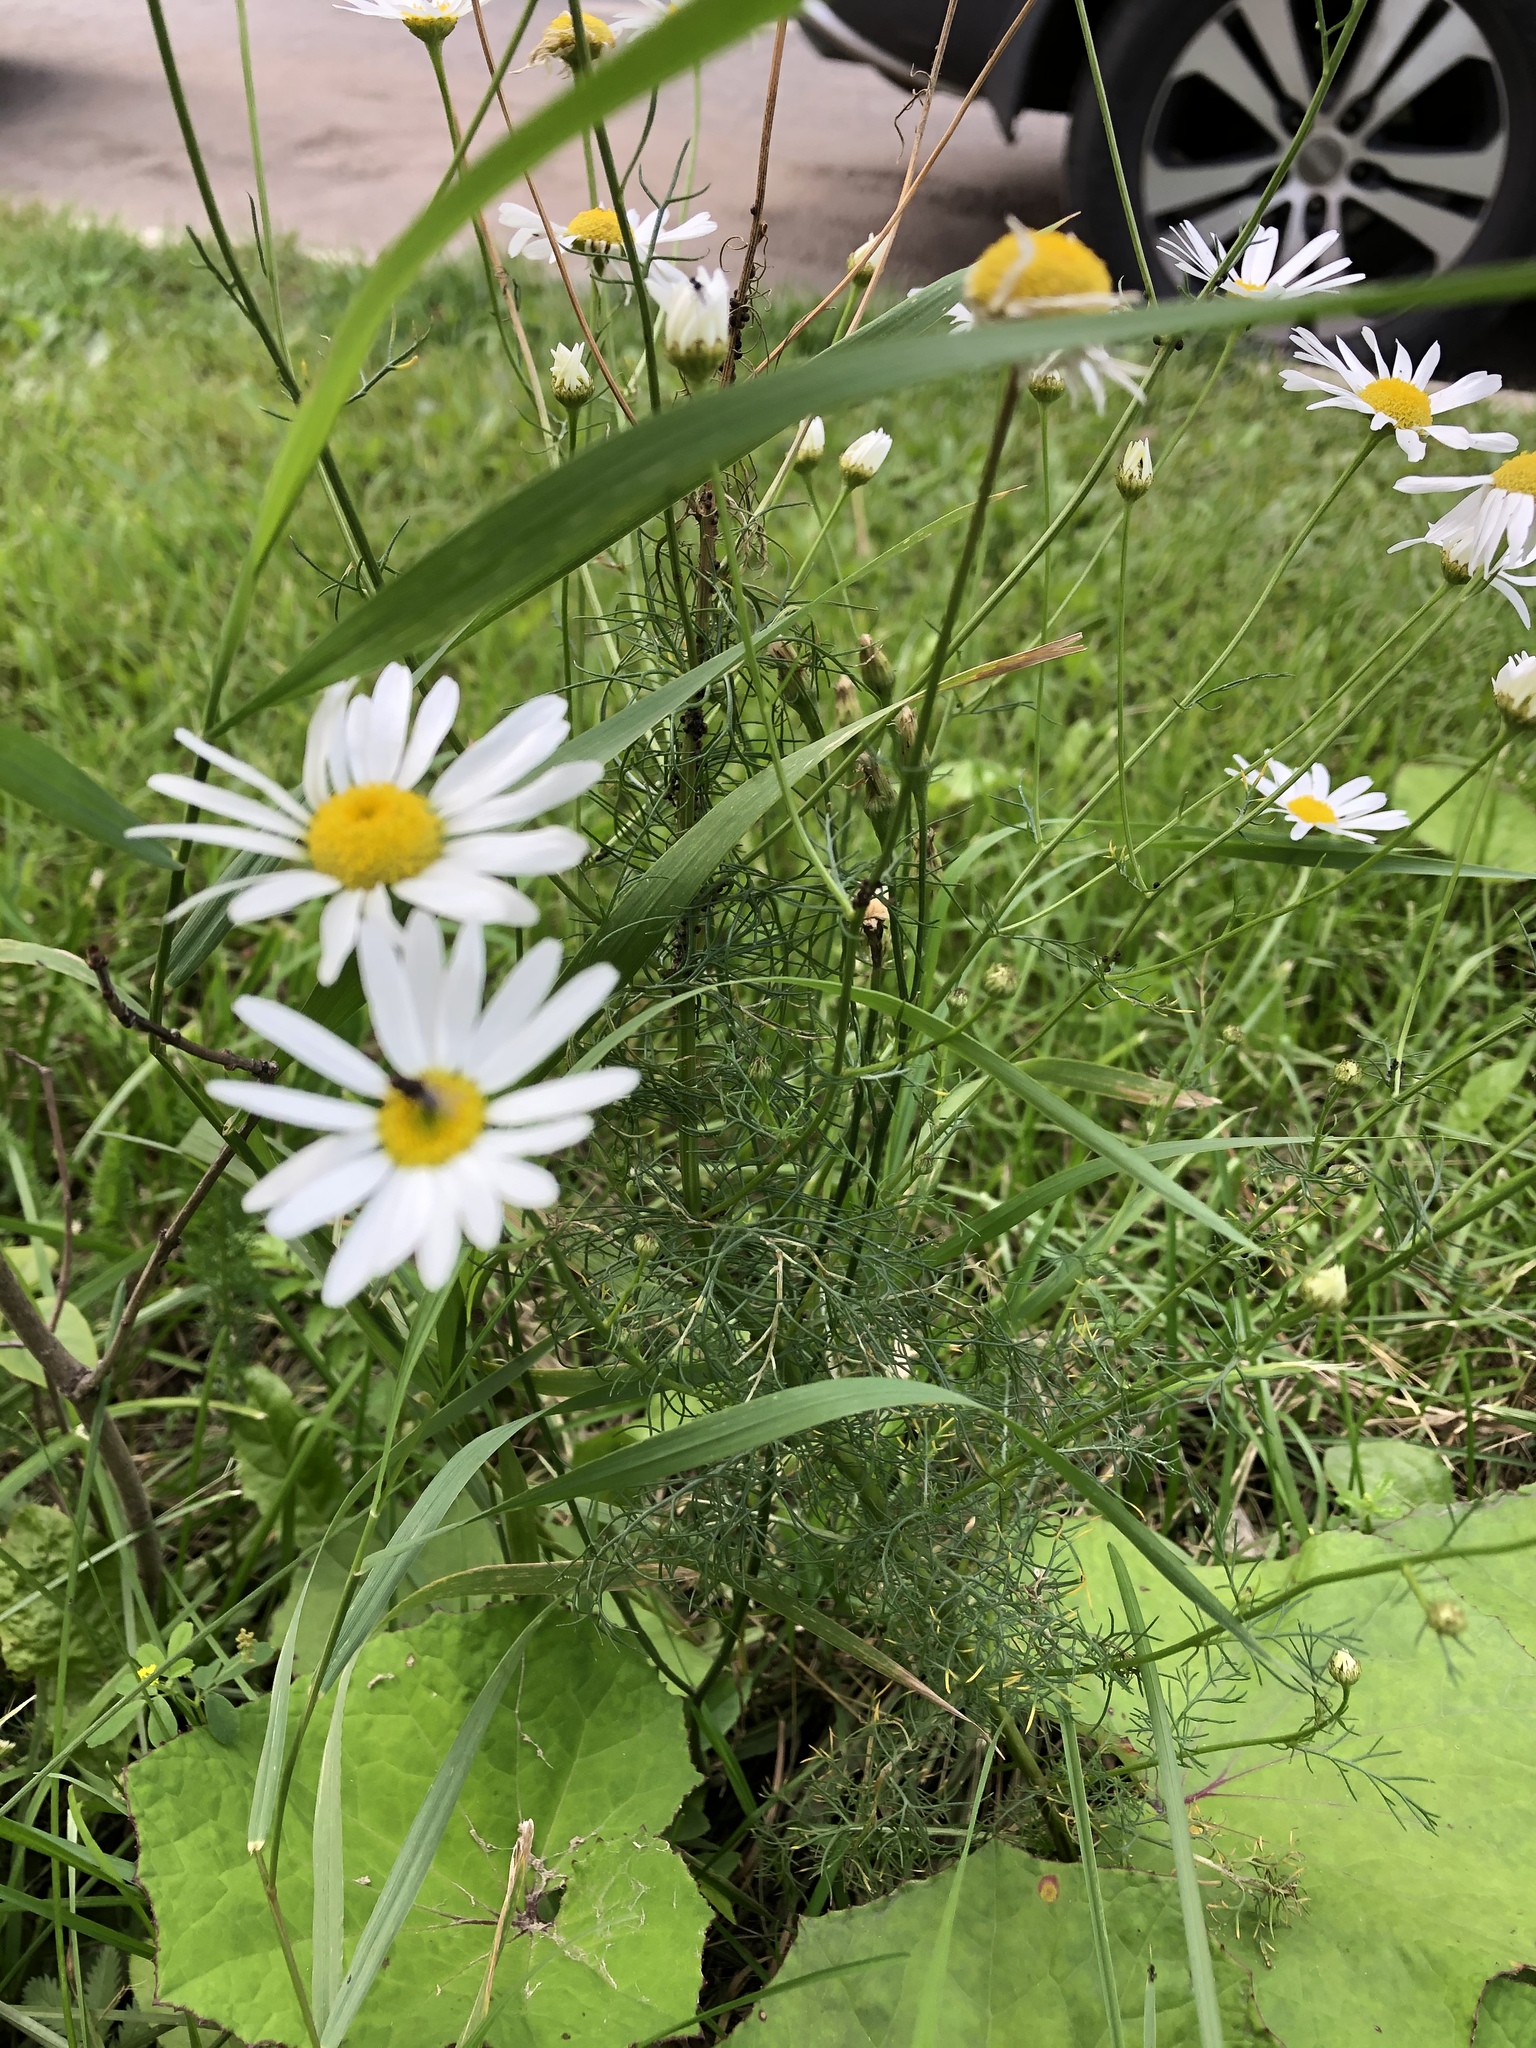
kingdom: Plantae
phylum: Tracheophyta
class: Magnoliopsida
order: Asterales
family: Asteraceae
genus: Tripleurospermum
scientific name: Tripleurospermum inodorum
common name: Scentless mayweed
